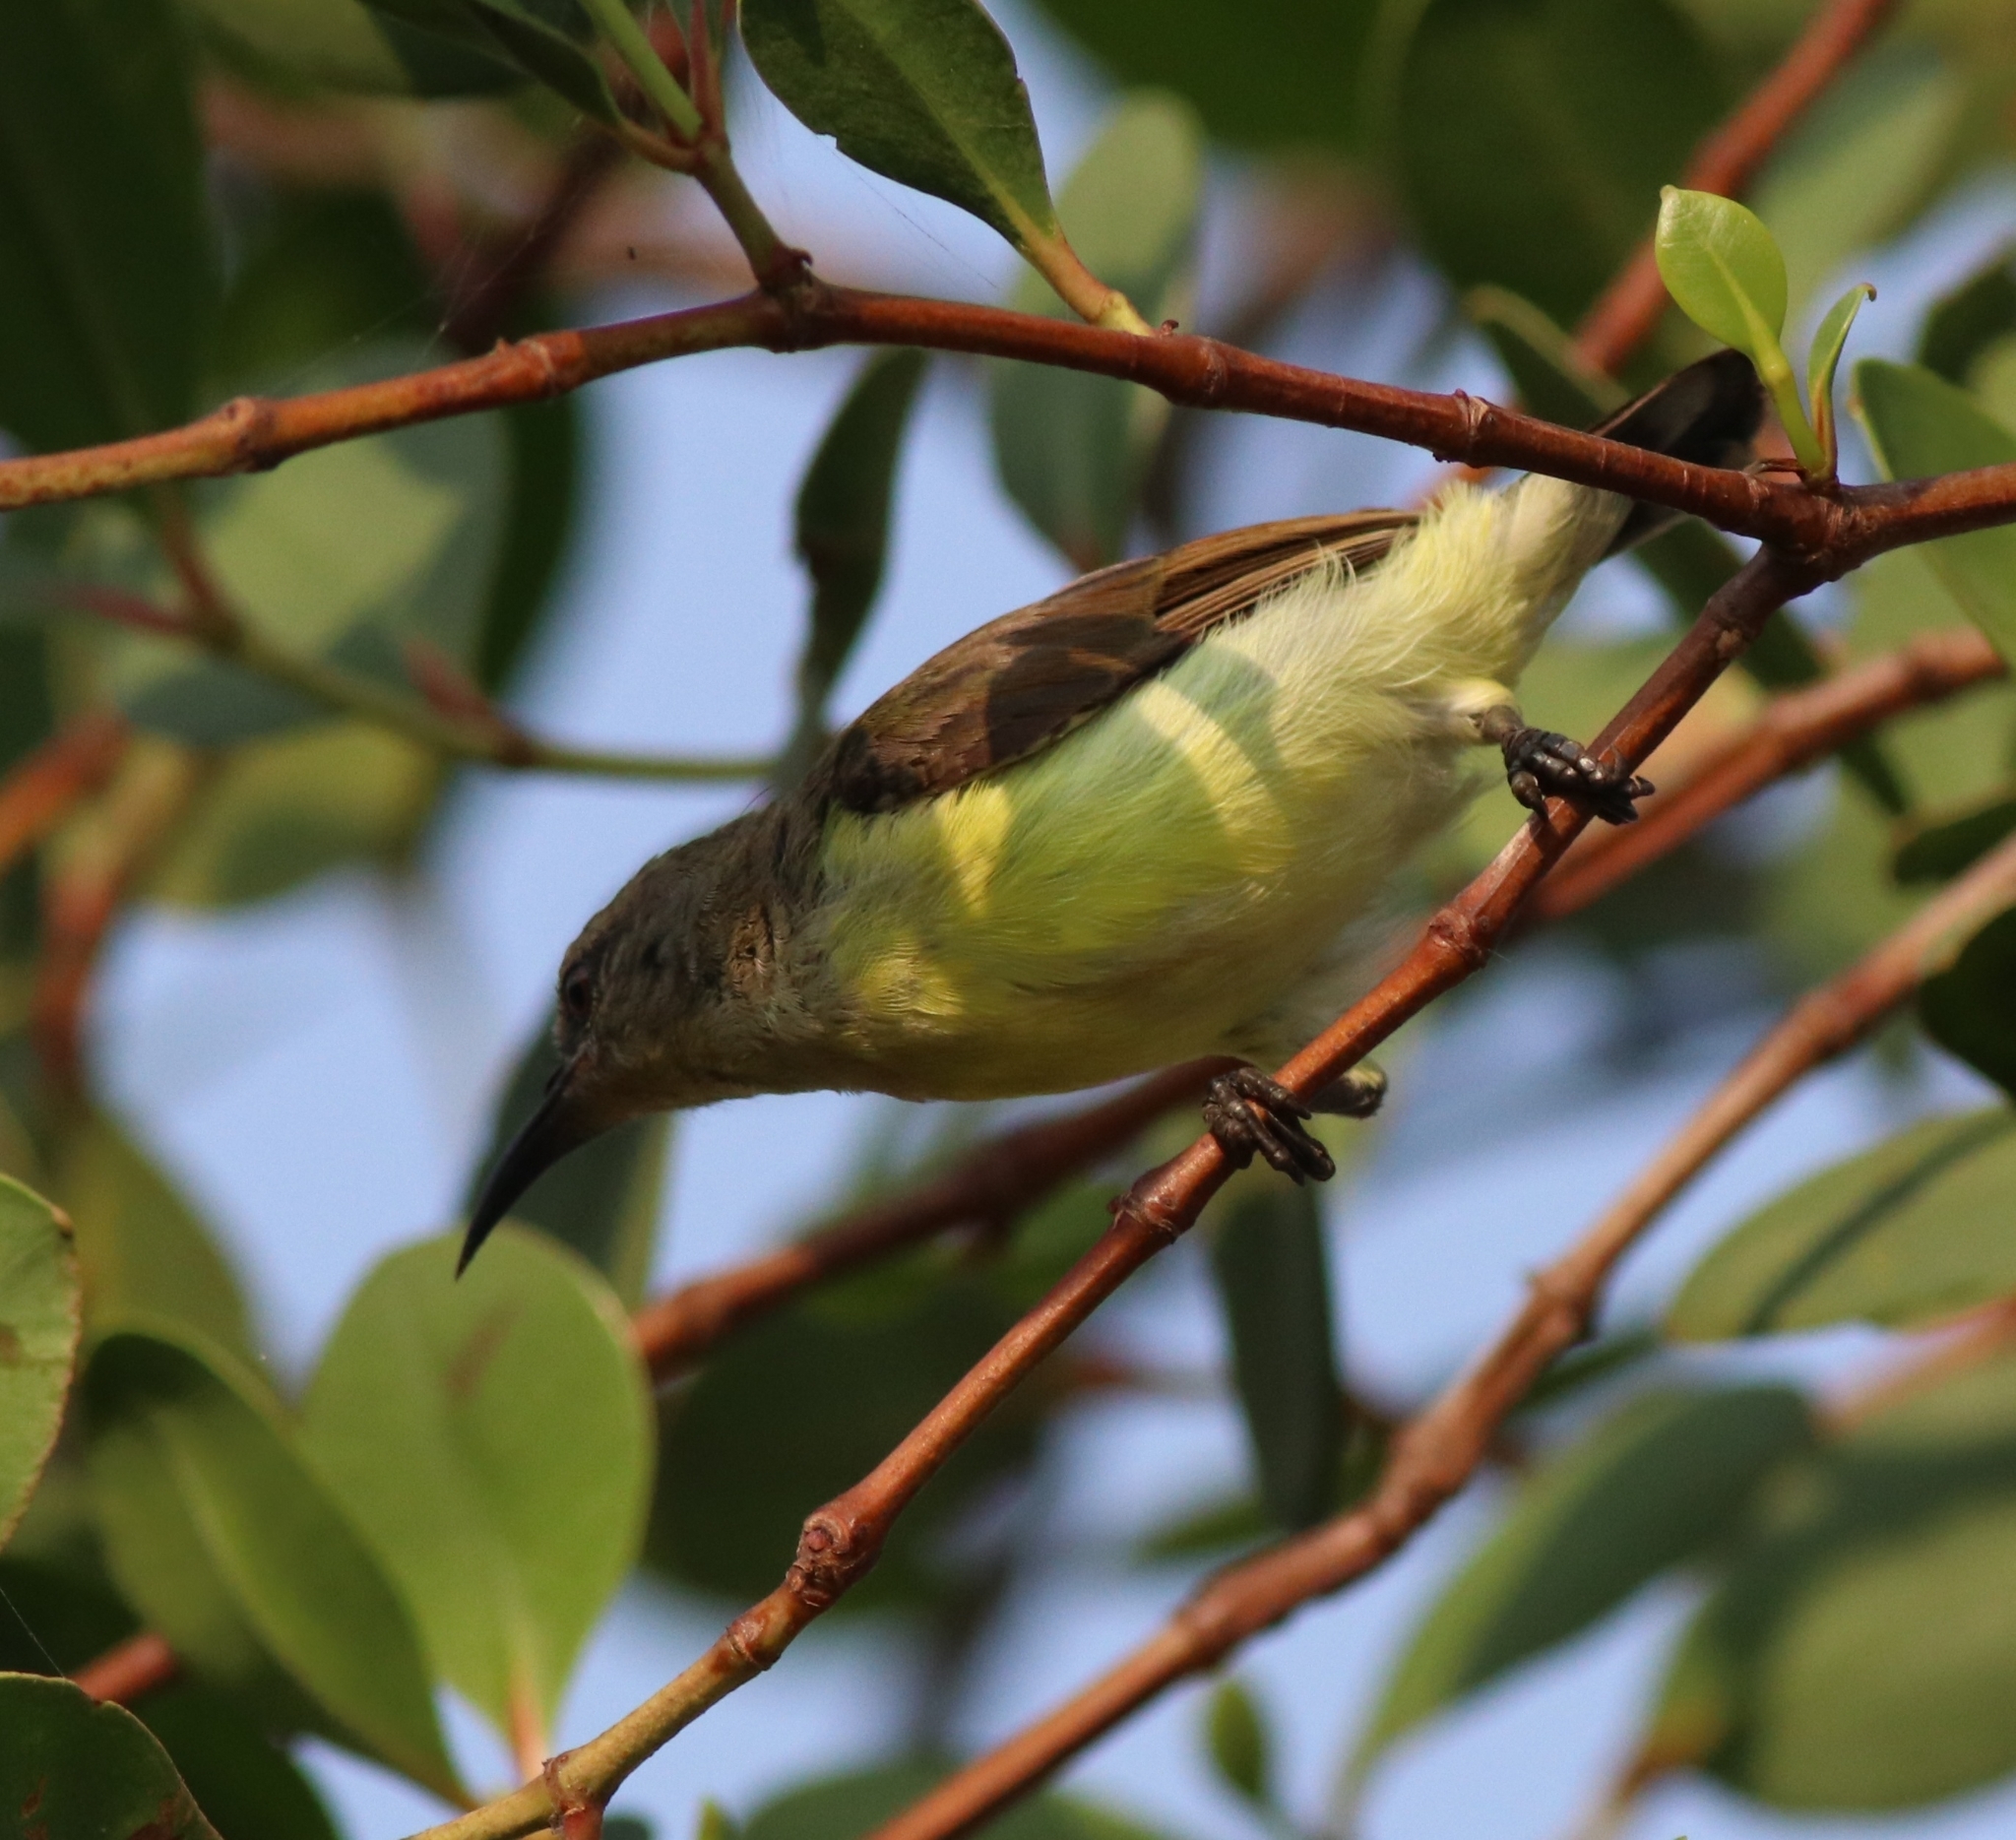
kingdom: Animalia
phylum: Chordata
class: Aves
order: Passeriformes
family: Nectariniidae
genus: Leptocoma
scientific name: Leptocoma zeylonica
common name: Purple-rumped sunbird
